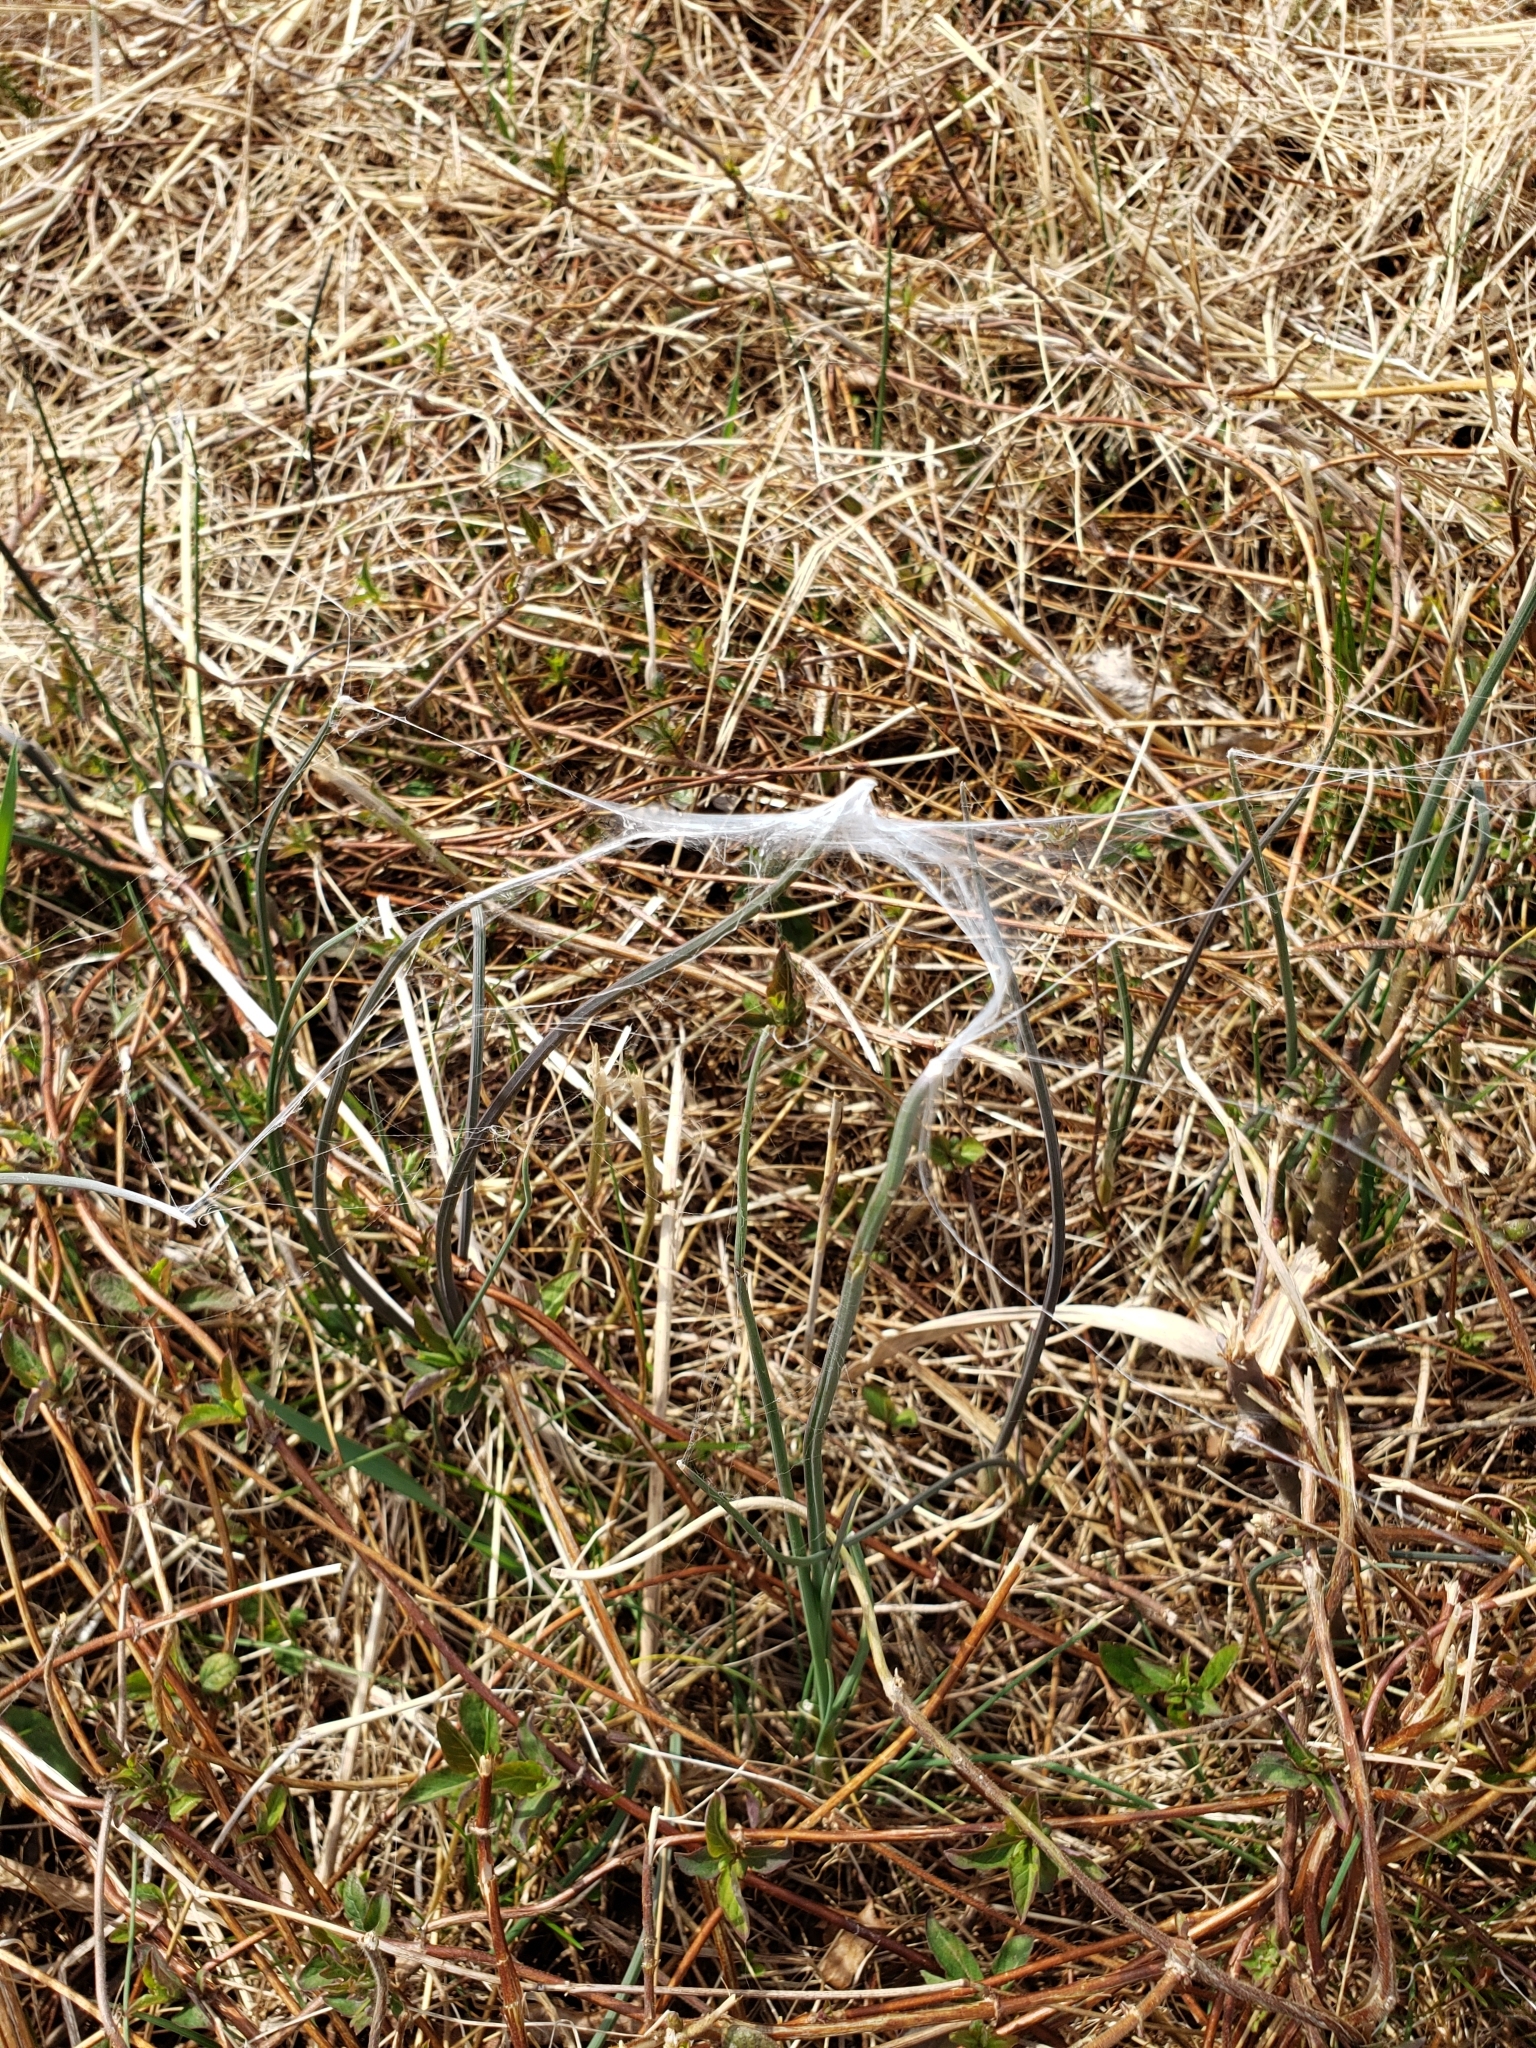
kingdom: Animalia
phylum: Arthropoda
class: Arachnida
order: Araneae
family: Atypidae
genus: Atypus
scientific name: Atypus karschi
